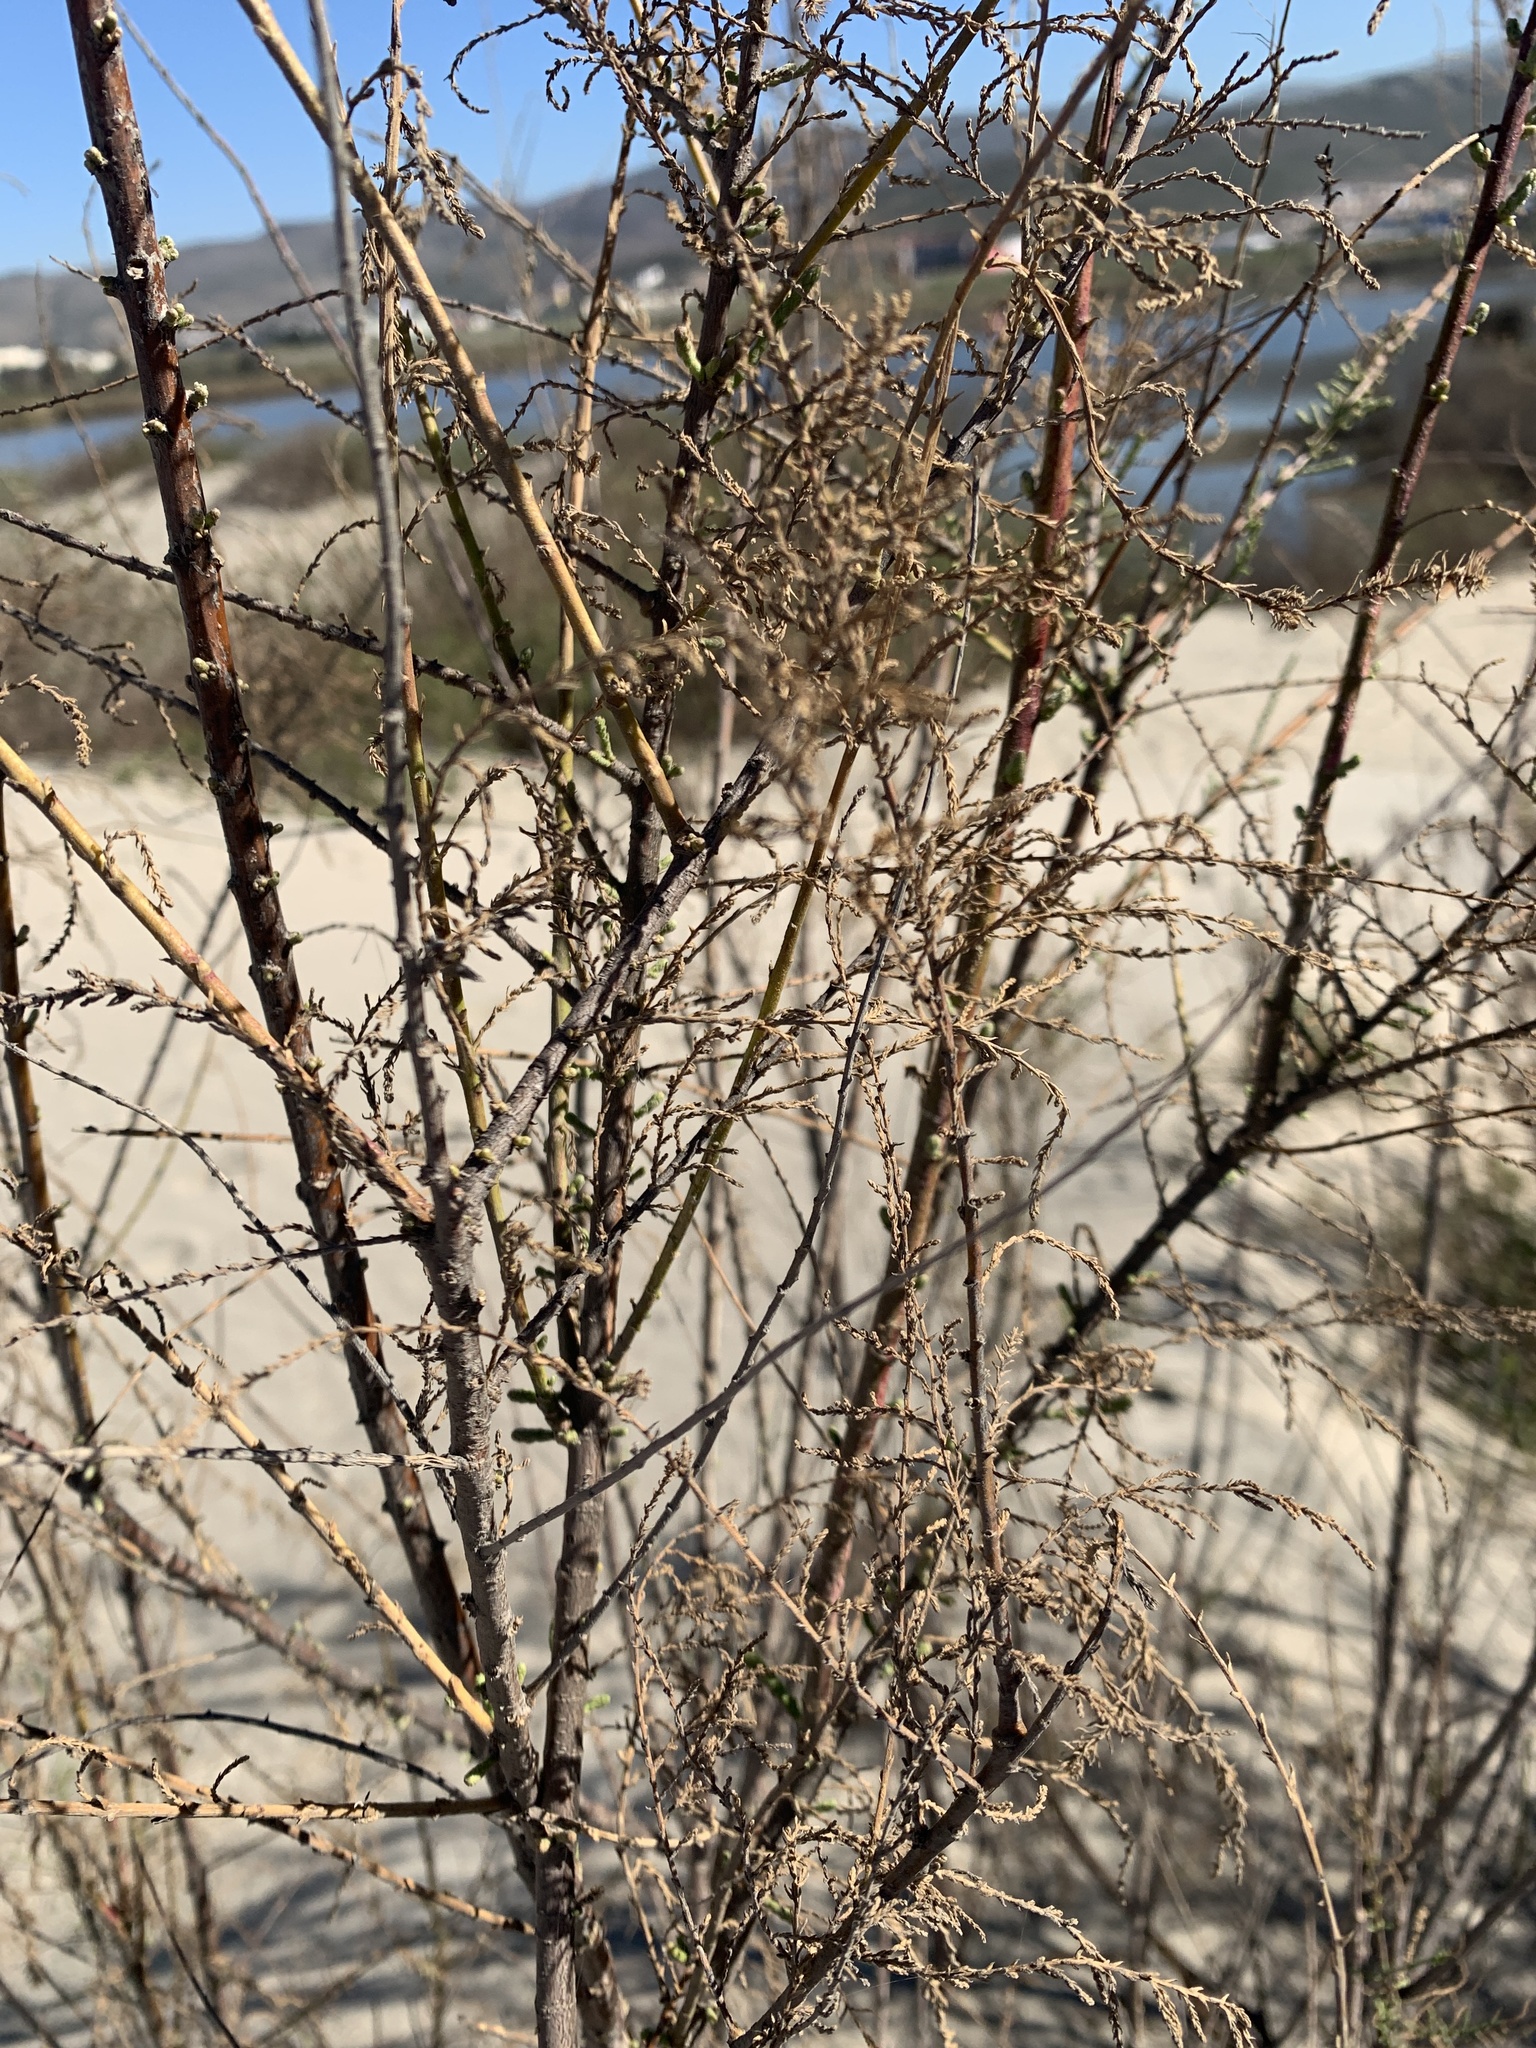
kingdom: Plantae
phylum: Tracheophyta
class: Magnoliopsida
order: Caryophyllales
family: Tamaricaceae
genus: Tamarix
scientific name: Tamarix ramosissima
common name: Pink tamarisk
